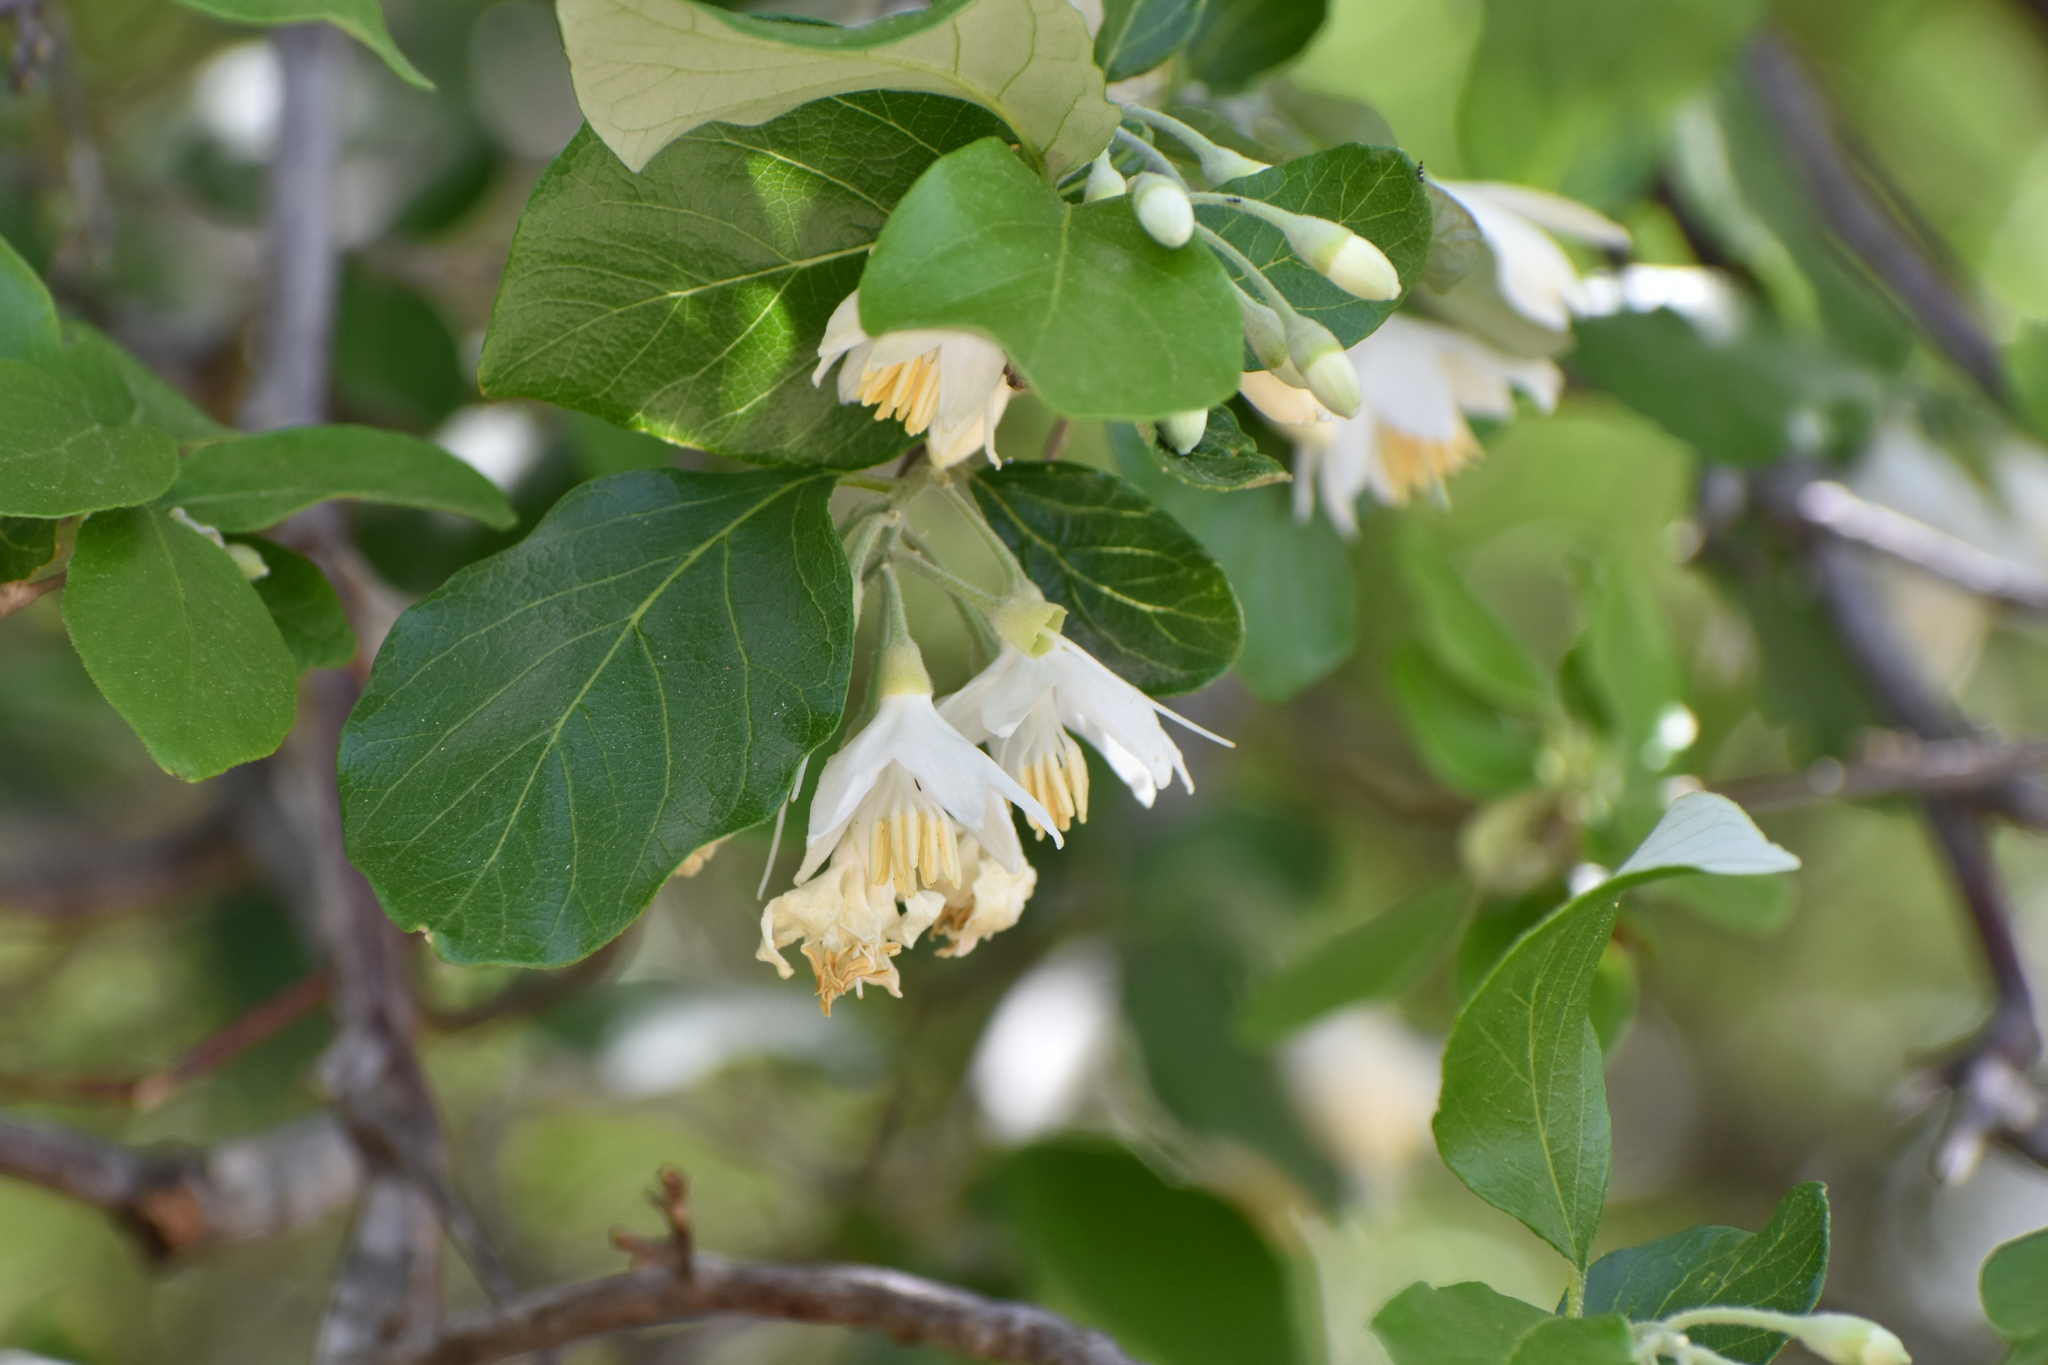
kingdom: Plantae
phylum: Tracheophyta
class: Magnoliopsida
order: Ericales
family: Styracaceae
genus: Styrax
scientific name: Styrax officinalis
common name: Storax
